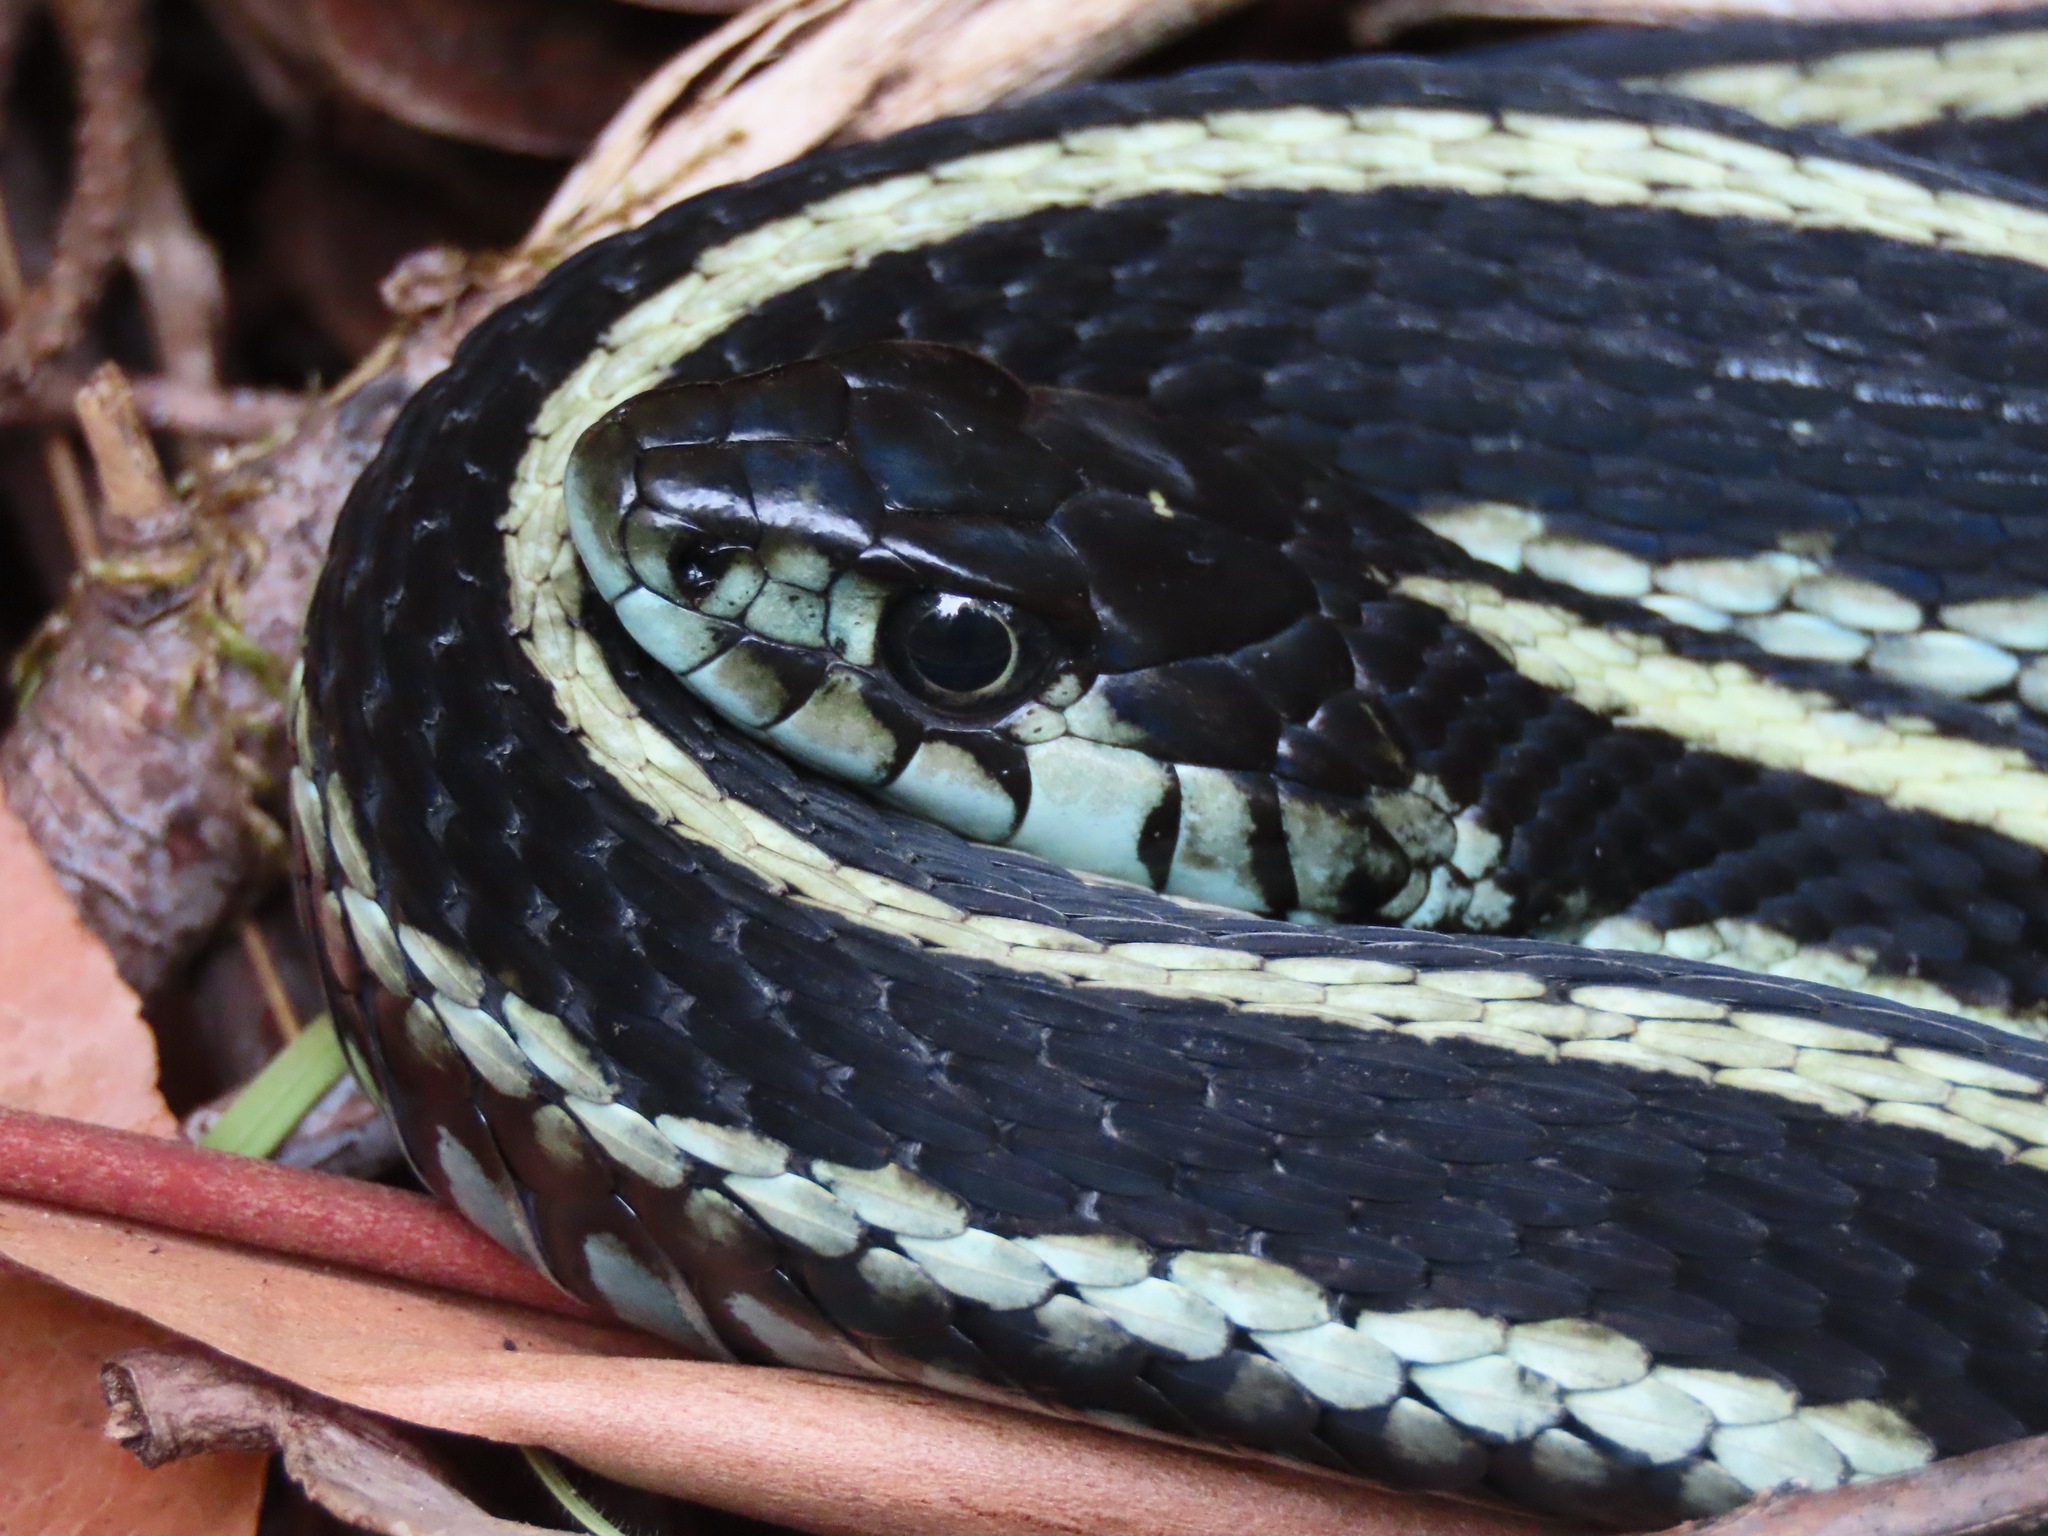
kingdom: Animalia
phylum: Chordata
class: Squamata
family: Colubridae
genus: Thamnophis
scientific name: Thamnophis sirtalis
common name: Common garter snake
